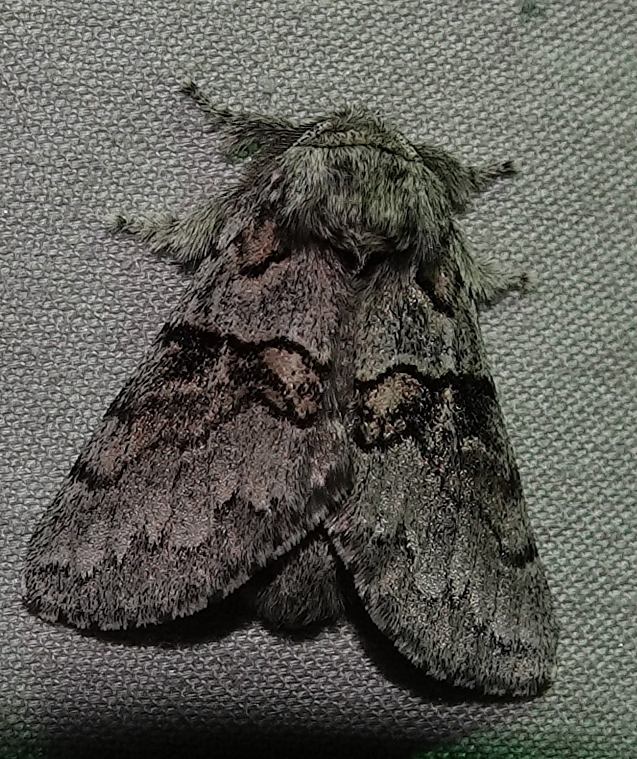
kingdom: Animalia
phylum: Arthropoda
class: Insecta
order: Lepidoptera
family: Notodontidae
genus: Gluphisia
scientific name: Gluphisia septentrionis
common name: Common gluphisia
